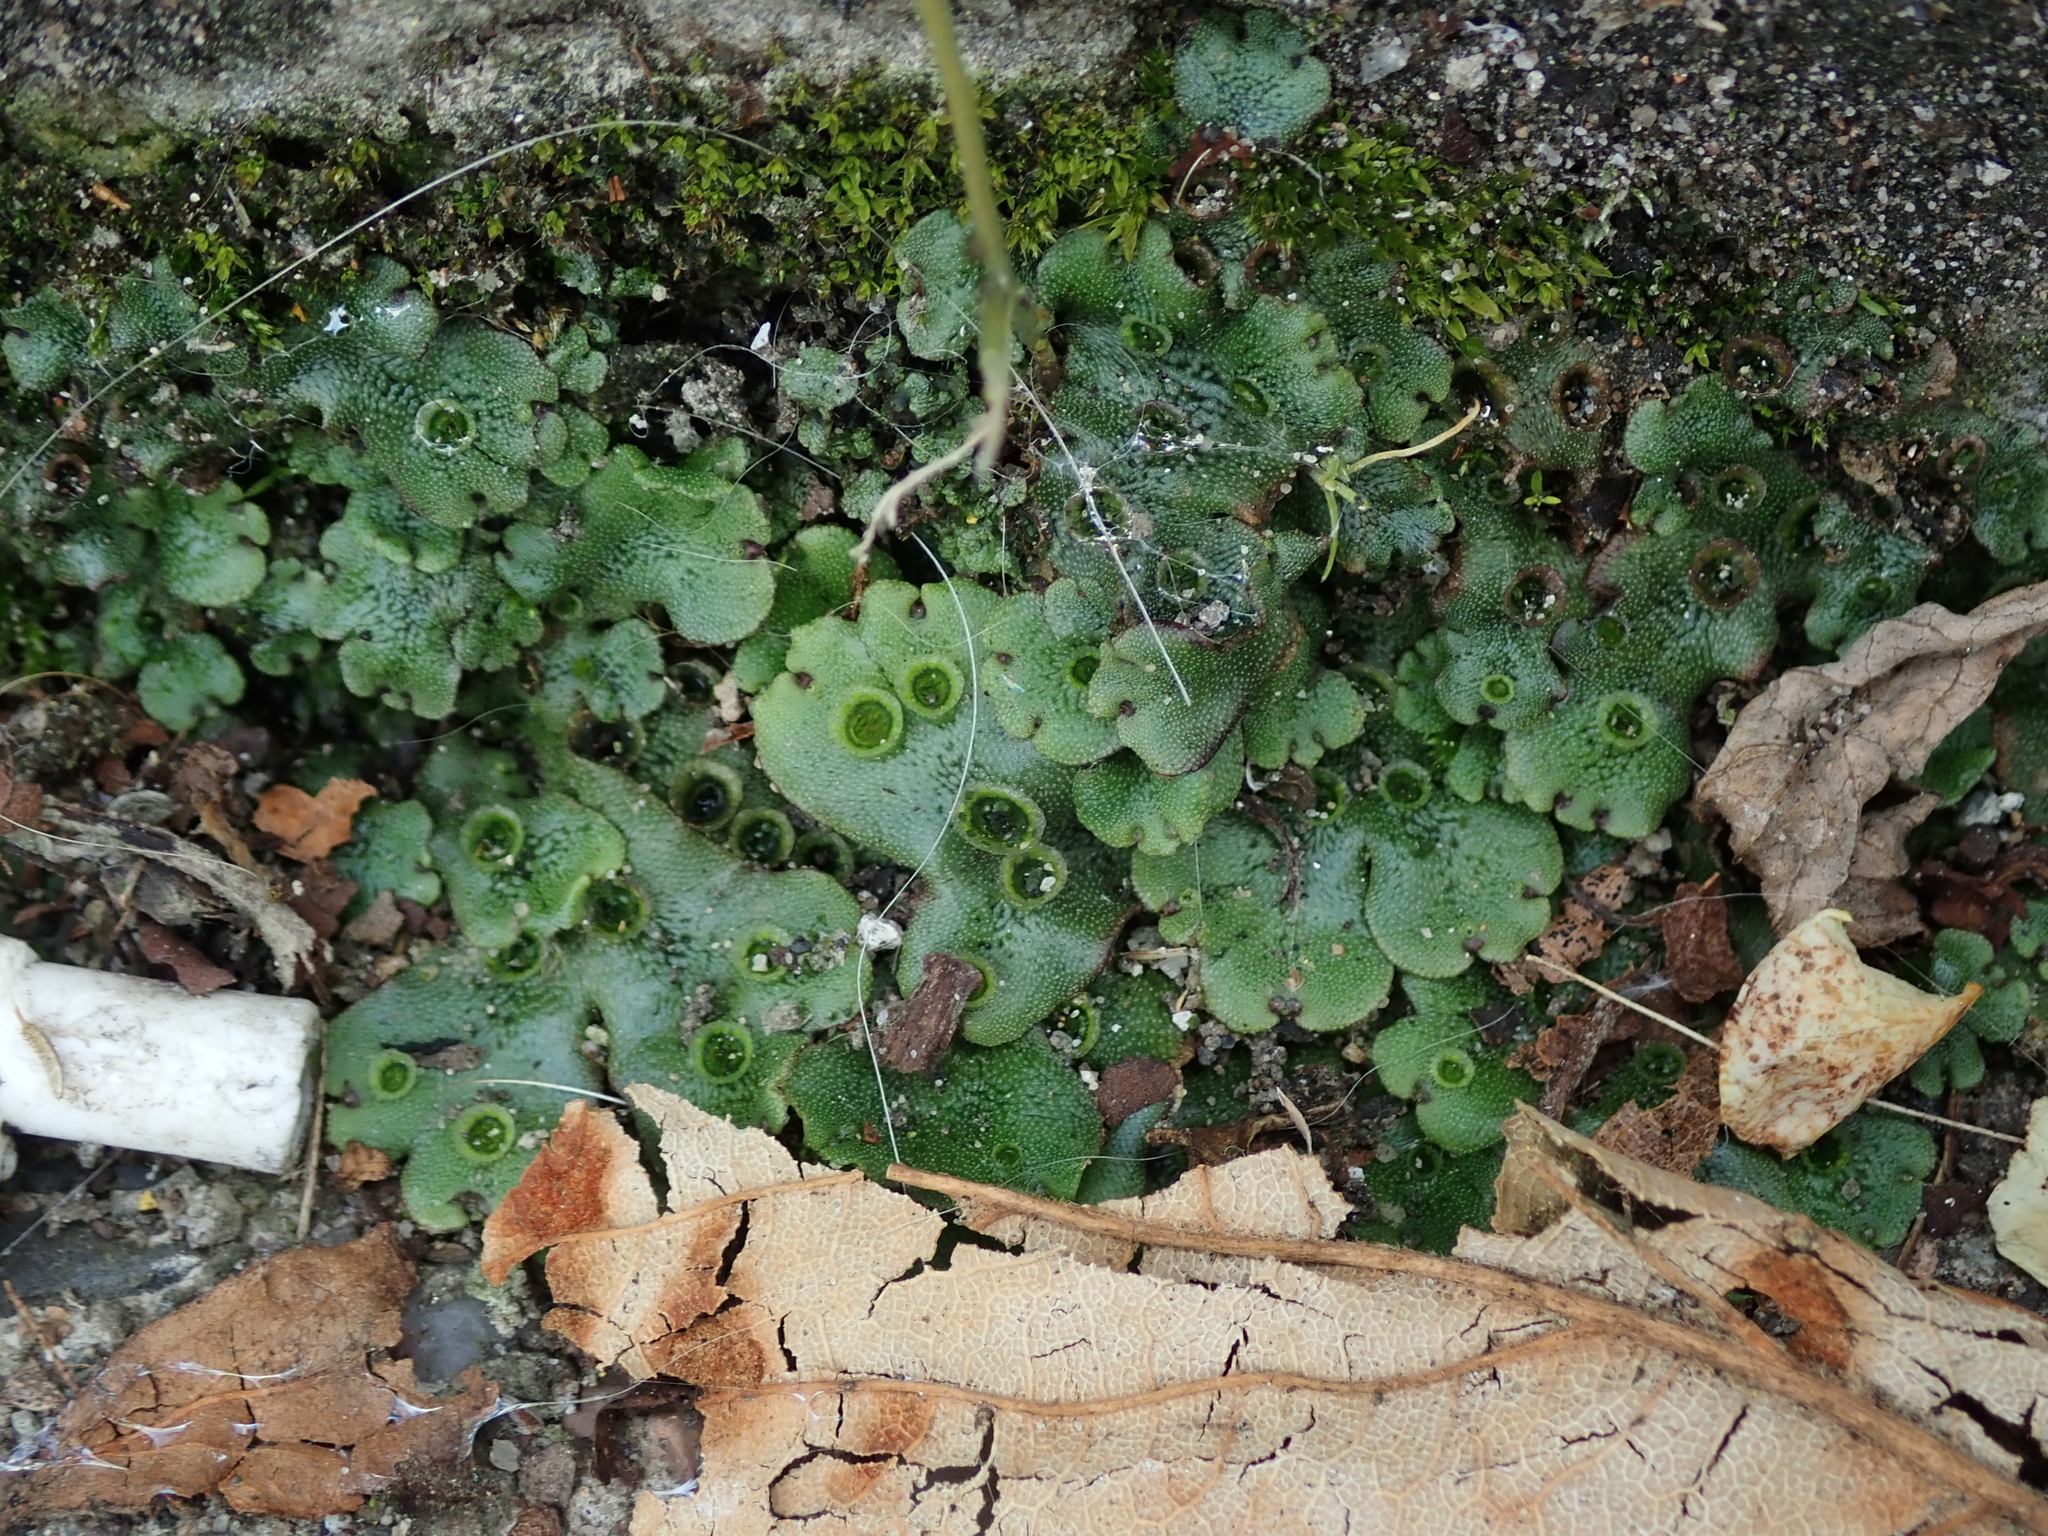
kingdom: Plantae
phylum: Marchantiophyta
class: Marchantiopsida
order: Marchantiales
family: Marchantiaceae
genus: Marchantia
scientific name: Marchantia polymorpha
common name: Common liverwort
